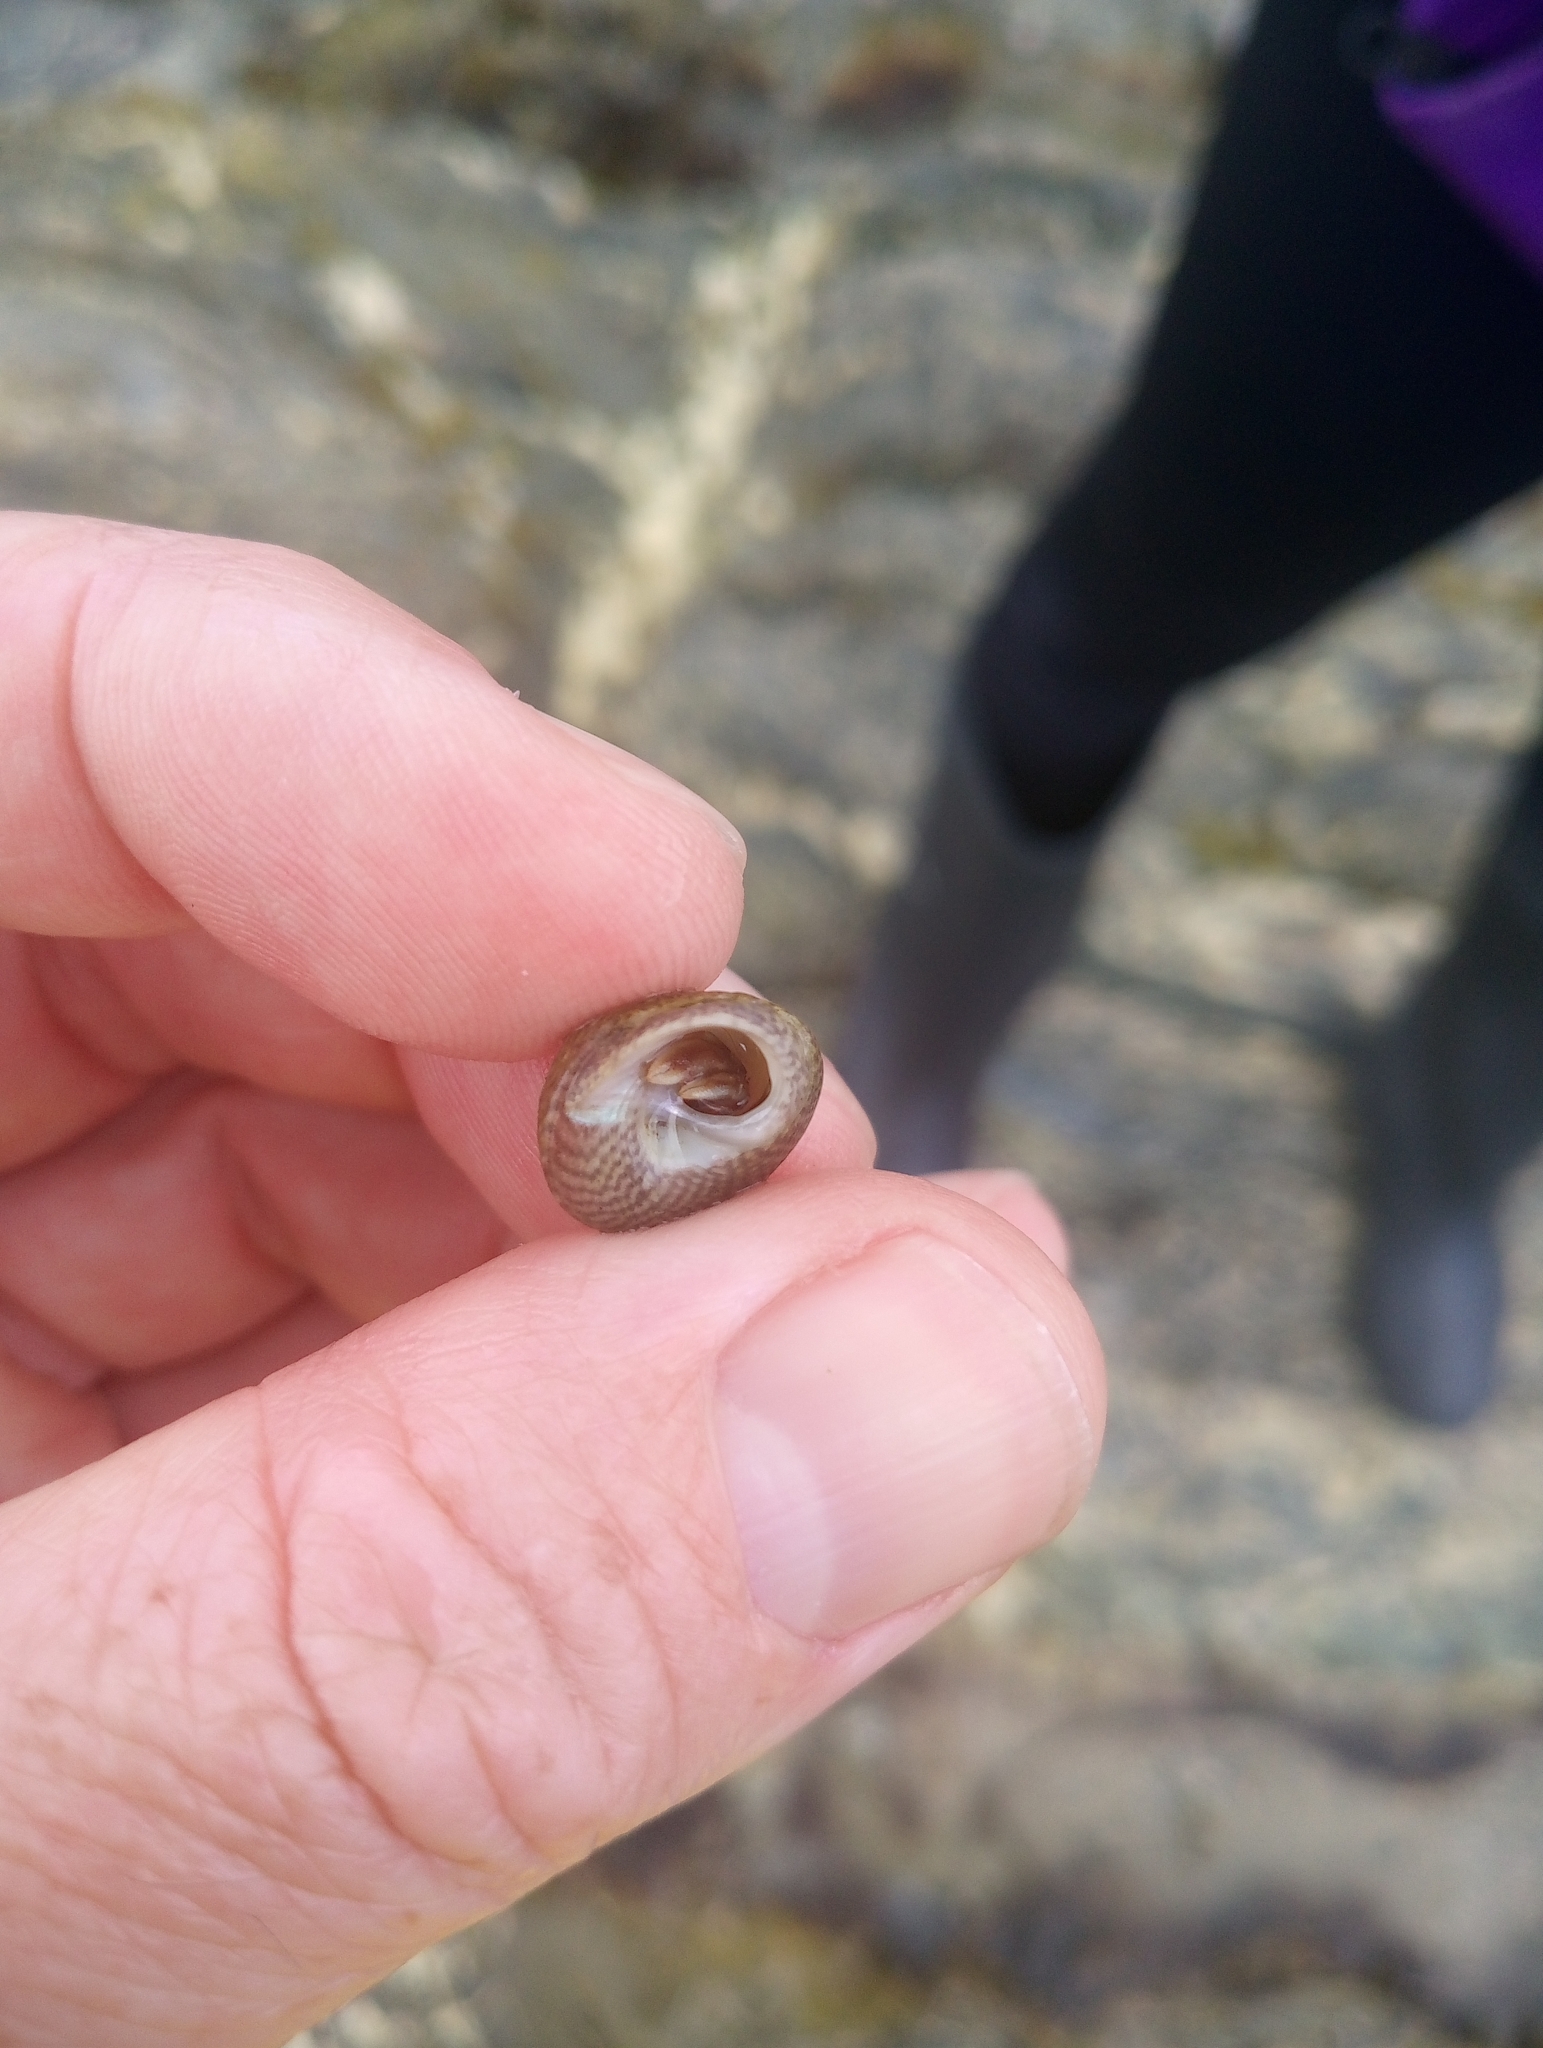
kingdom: Animalia
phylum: Arthropoda
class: Malacostraca
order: Decapoda
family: Paguridae
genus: Pagurus
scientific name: Pagurus bernhardus
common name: Hermit crab
